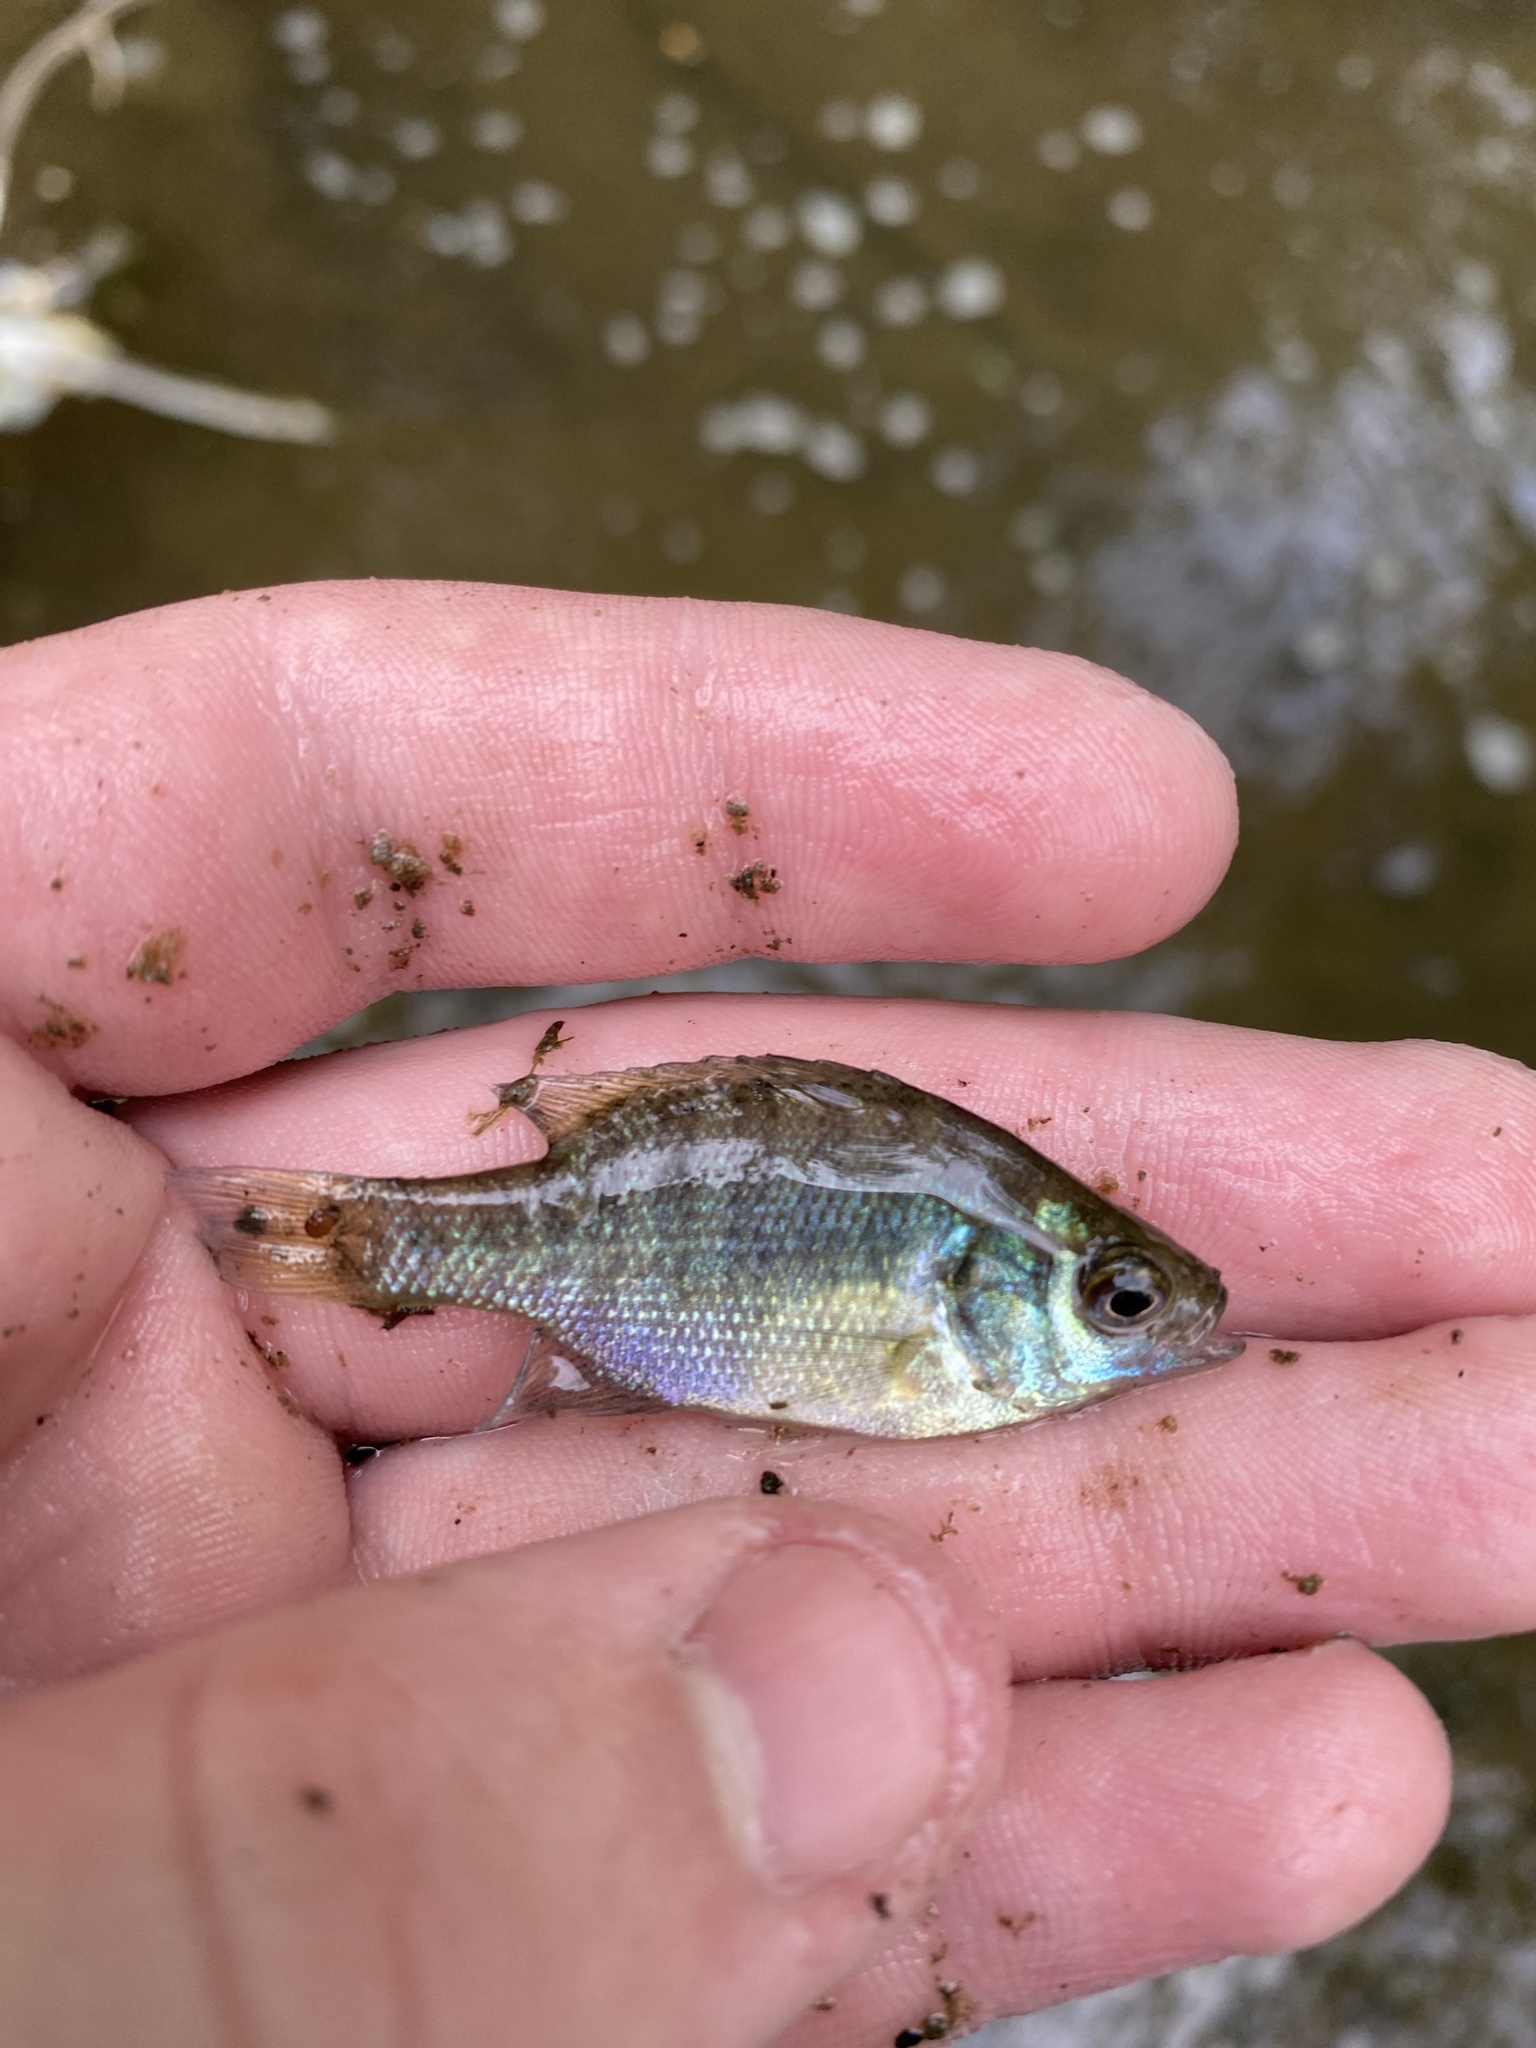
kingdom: Animalia
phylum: Chordata
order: Perciformes
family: Centrarchidae
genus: Lepomis
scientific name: Lepomis macrochirus
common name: Bluegill
